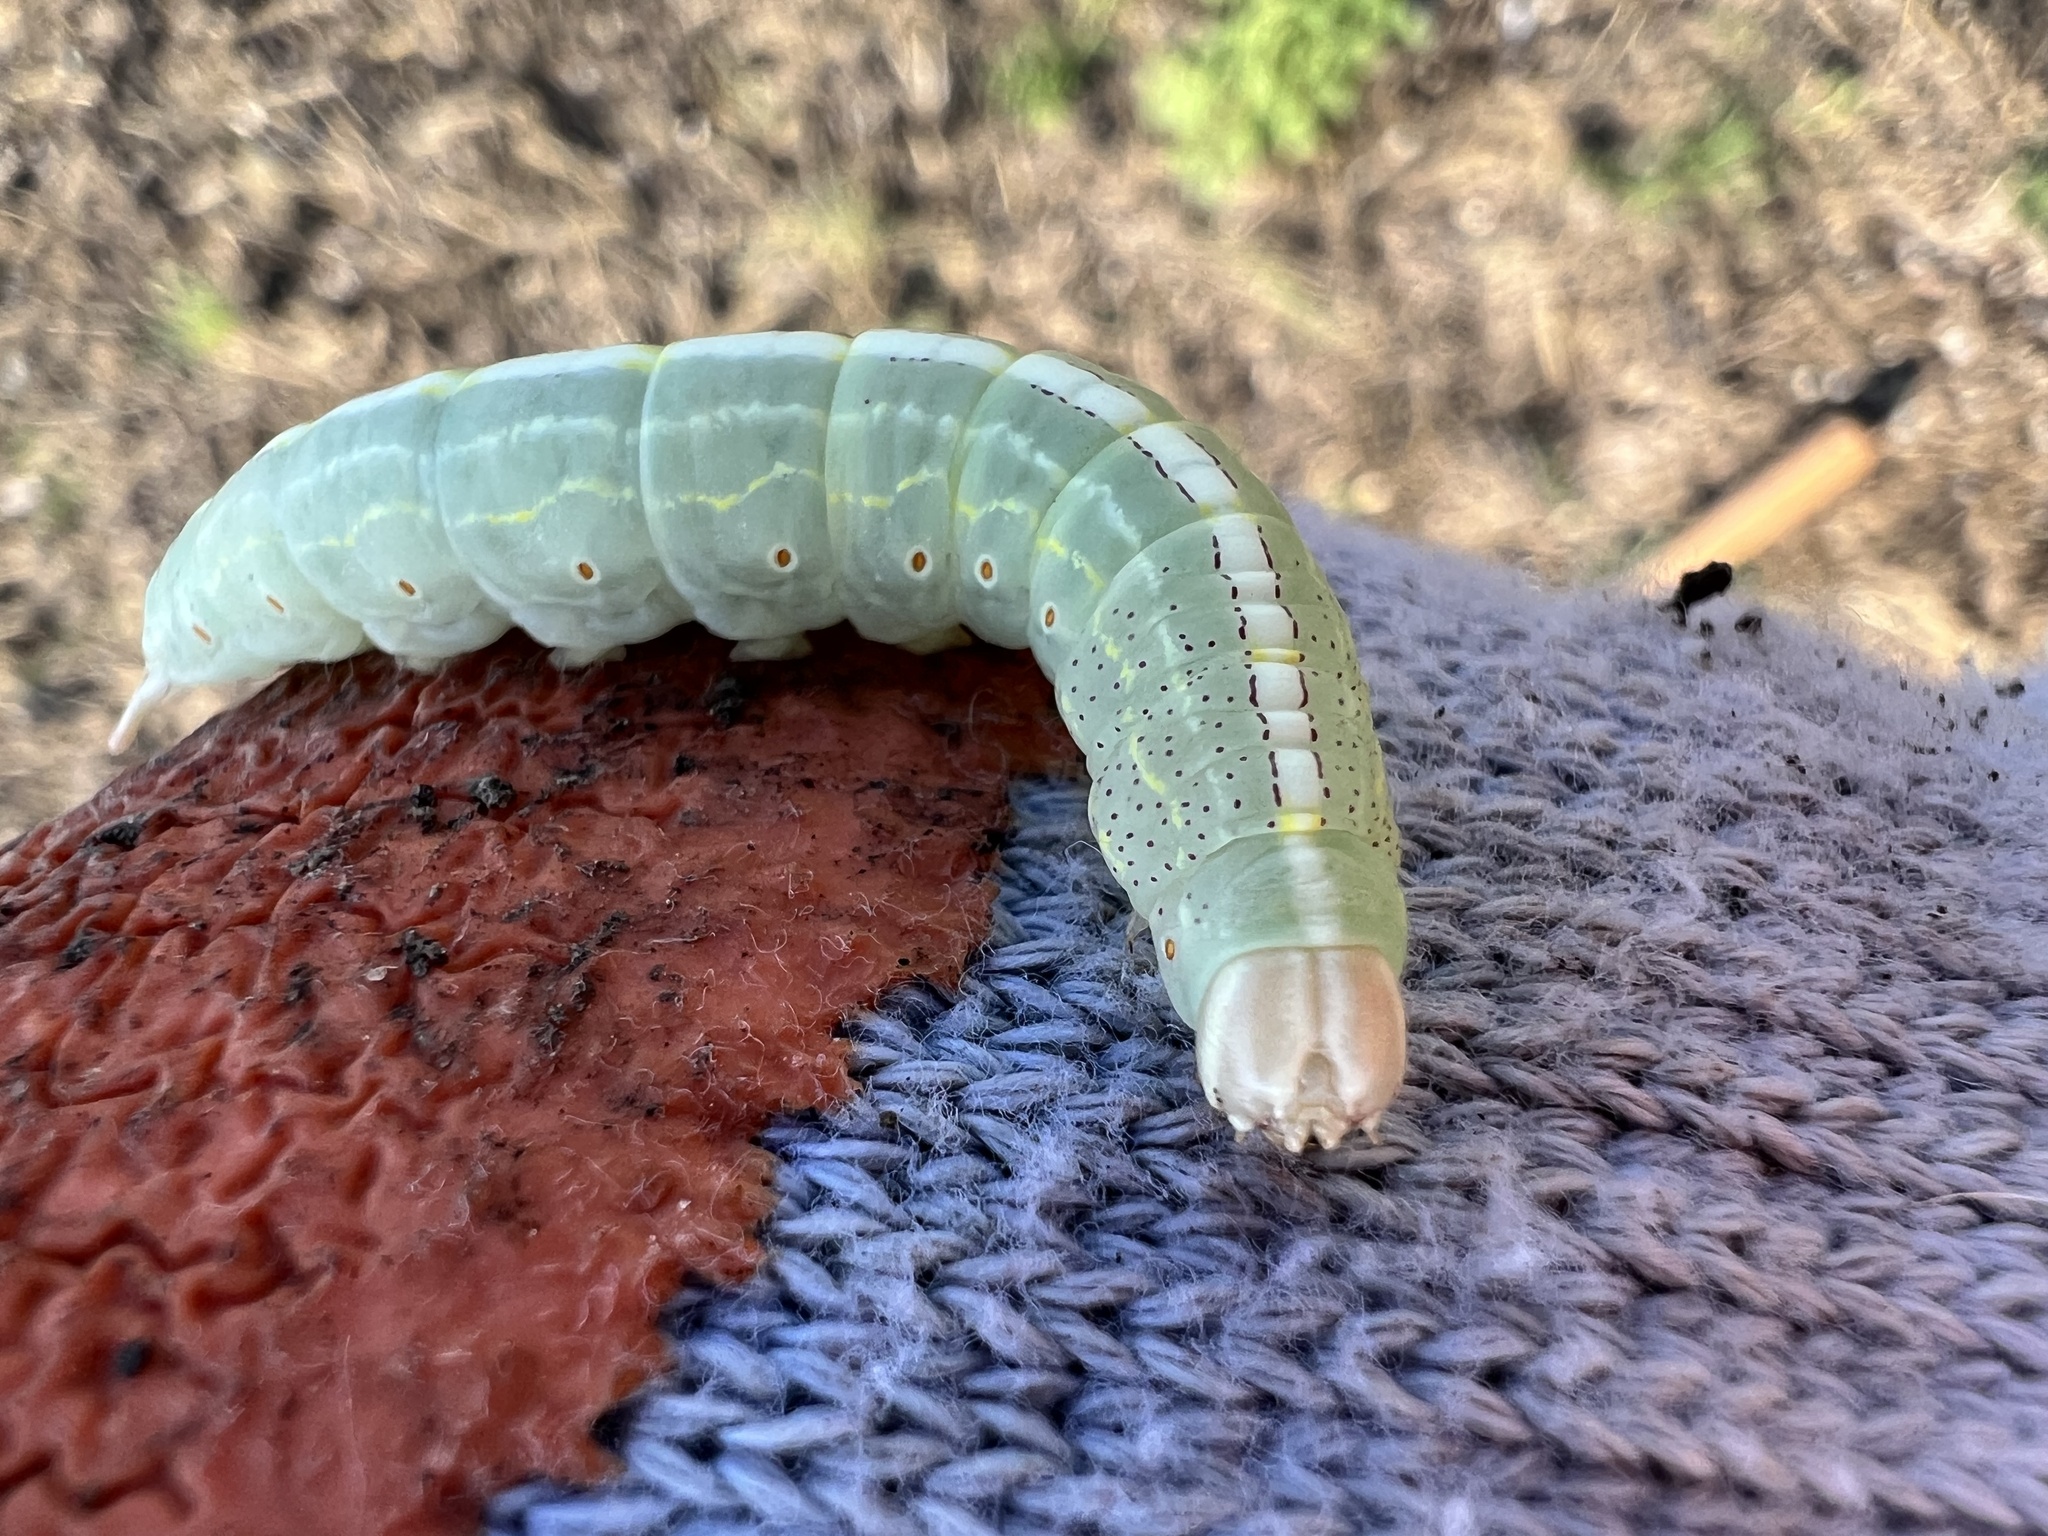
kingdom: Animalia
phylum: Arthropoda
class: Insecta
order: Lepidoptera
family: Notodontidae
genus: Misogada
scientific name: Misogada unicolor
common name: Drab prominent
